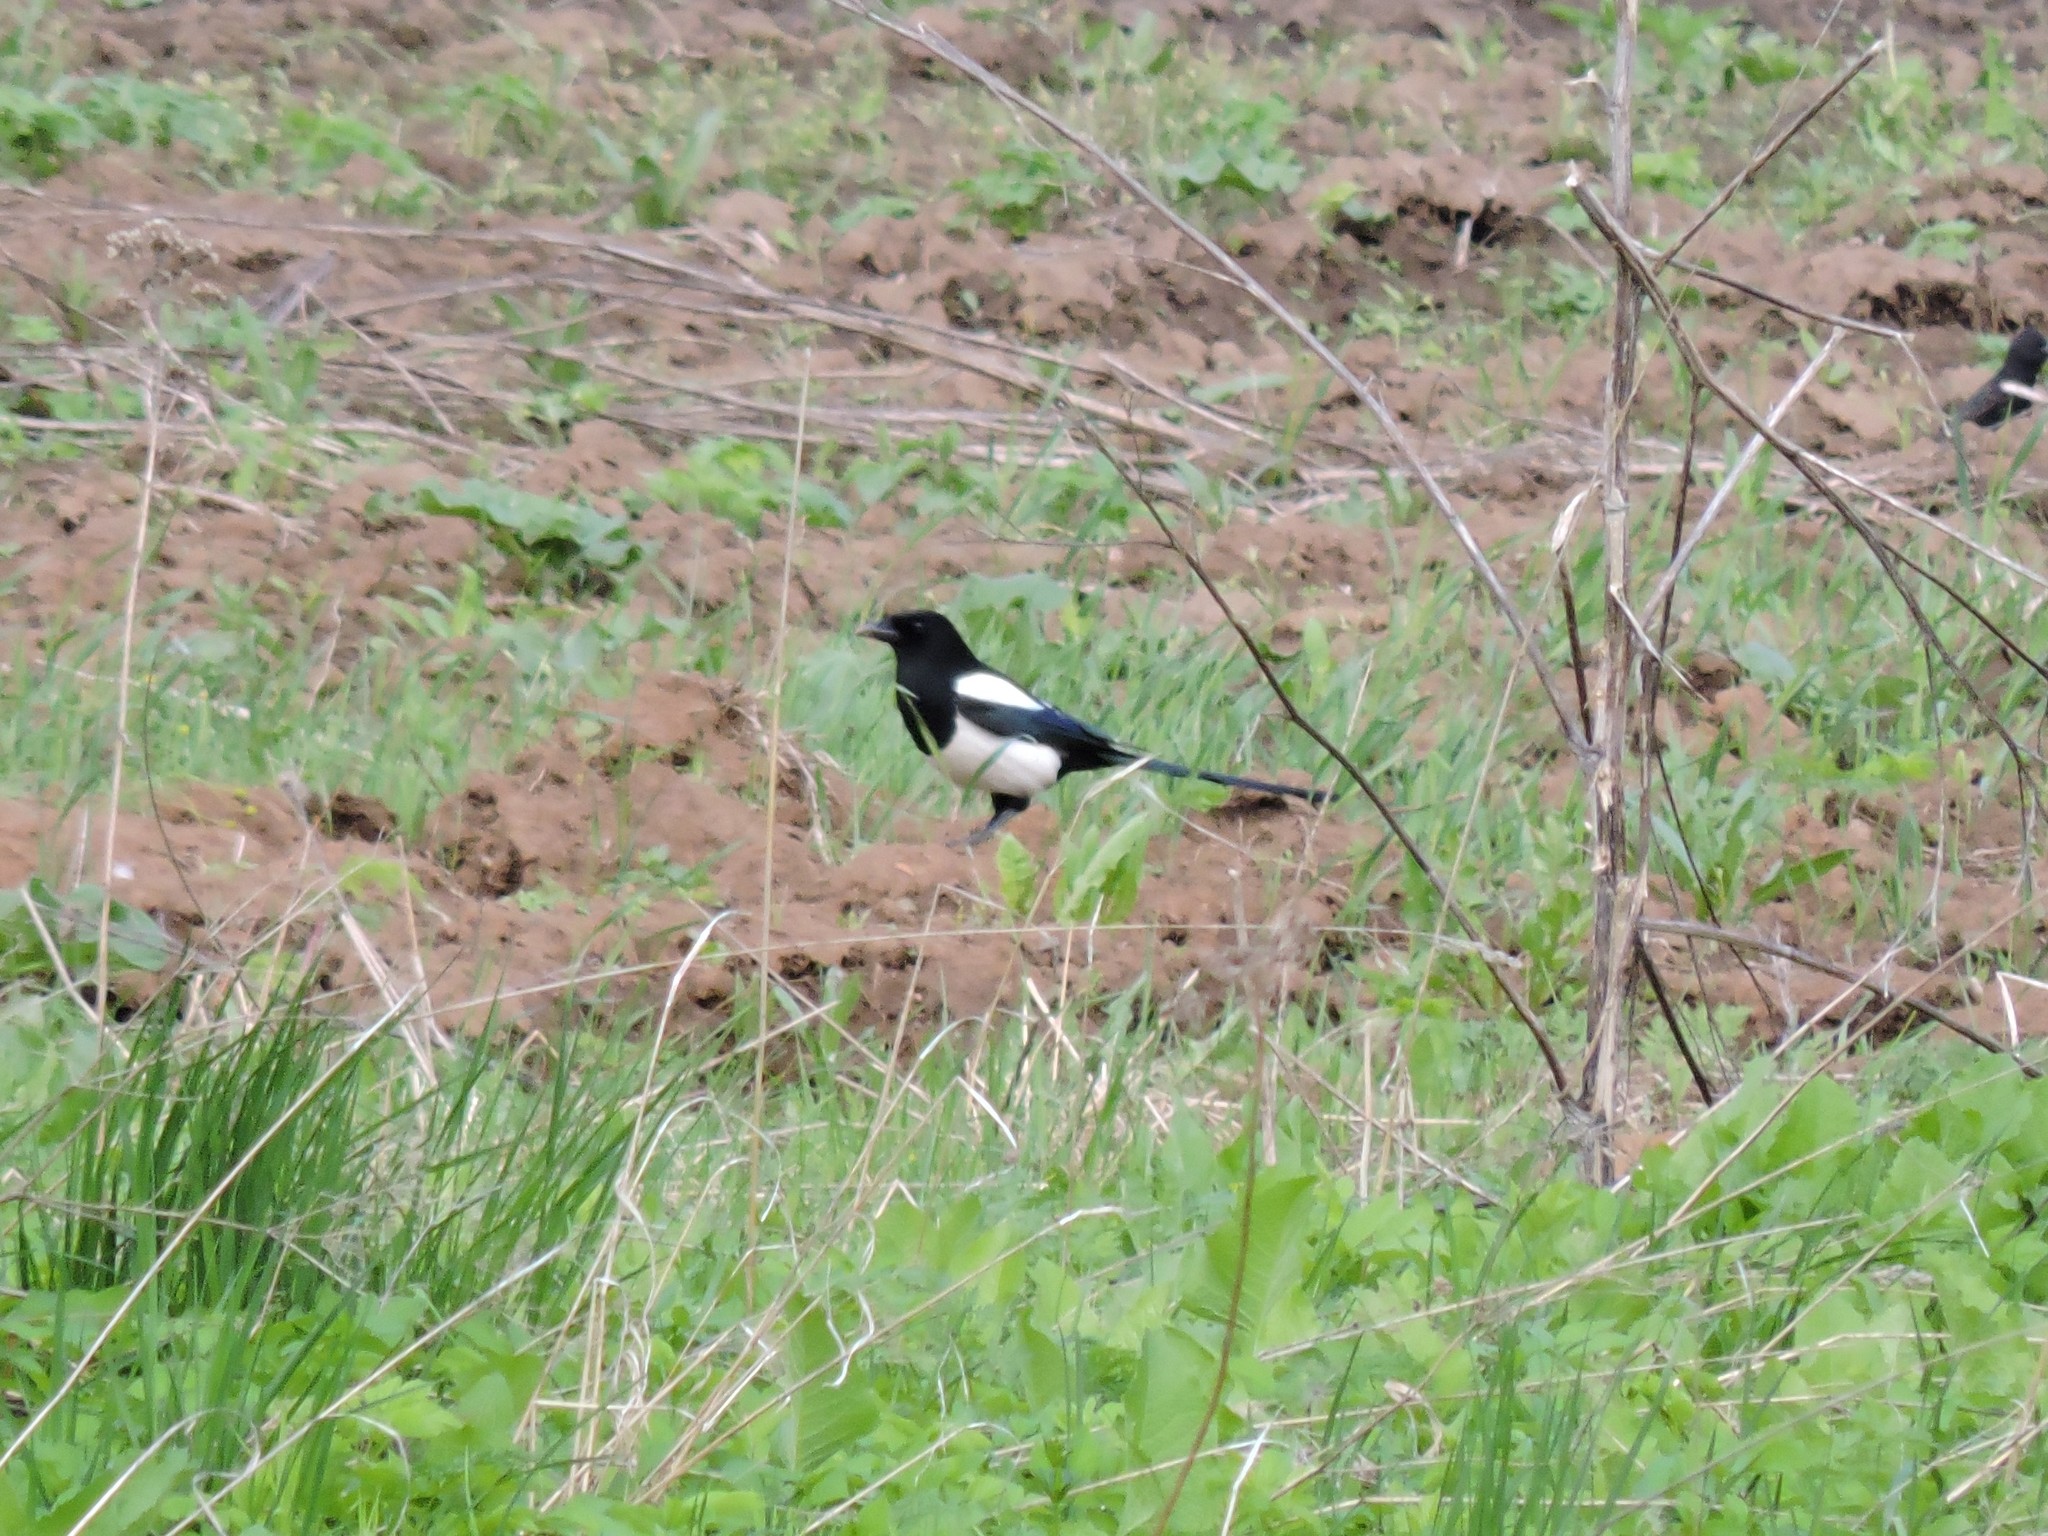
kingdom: Animalia
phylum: Chordata
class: Aves
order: Passeriformes
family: Corvidae
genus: Pica
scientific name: Pica pica
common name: Eurasian magpie
